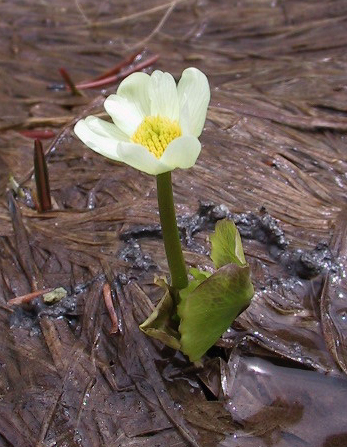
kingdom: Plantae
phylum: Tracheophyta
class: Magnoliopsida
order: Ranunculales
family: Ranunculaceae
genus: Caltha
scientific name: Caltha leptosepala
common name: Elkslip
